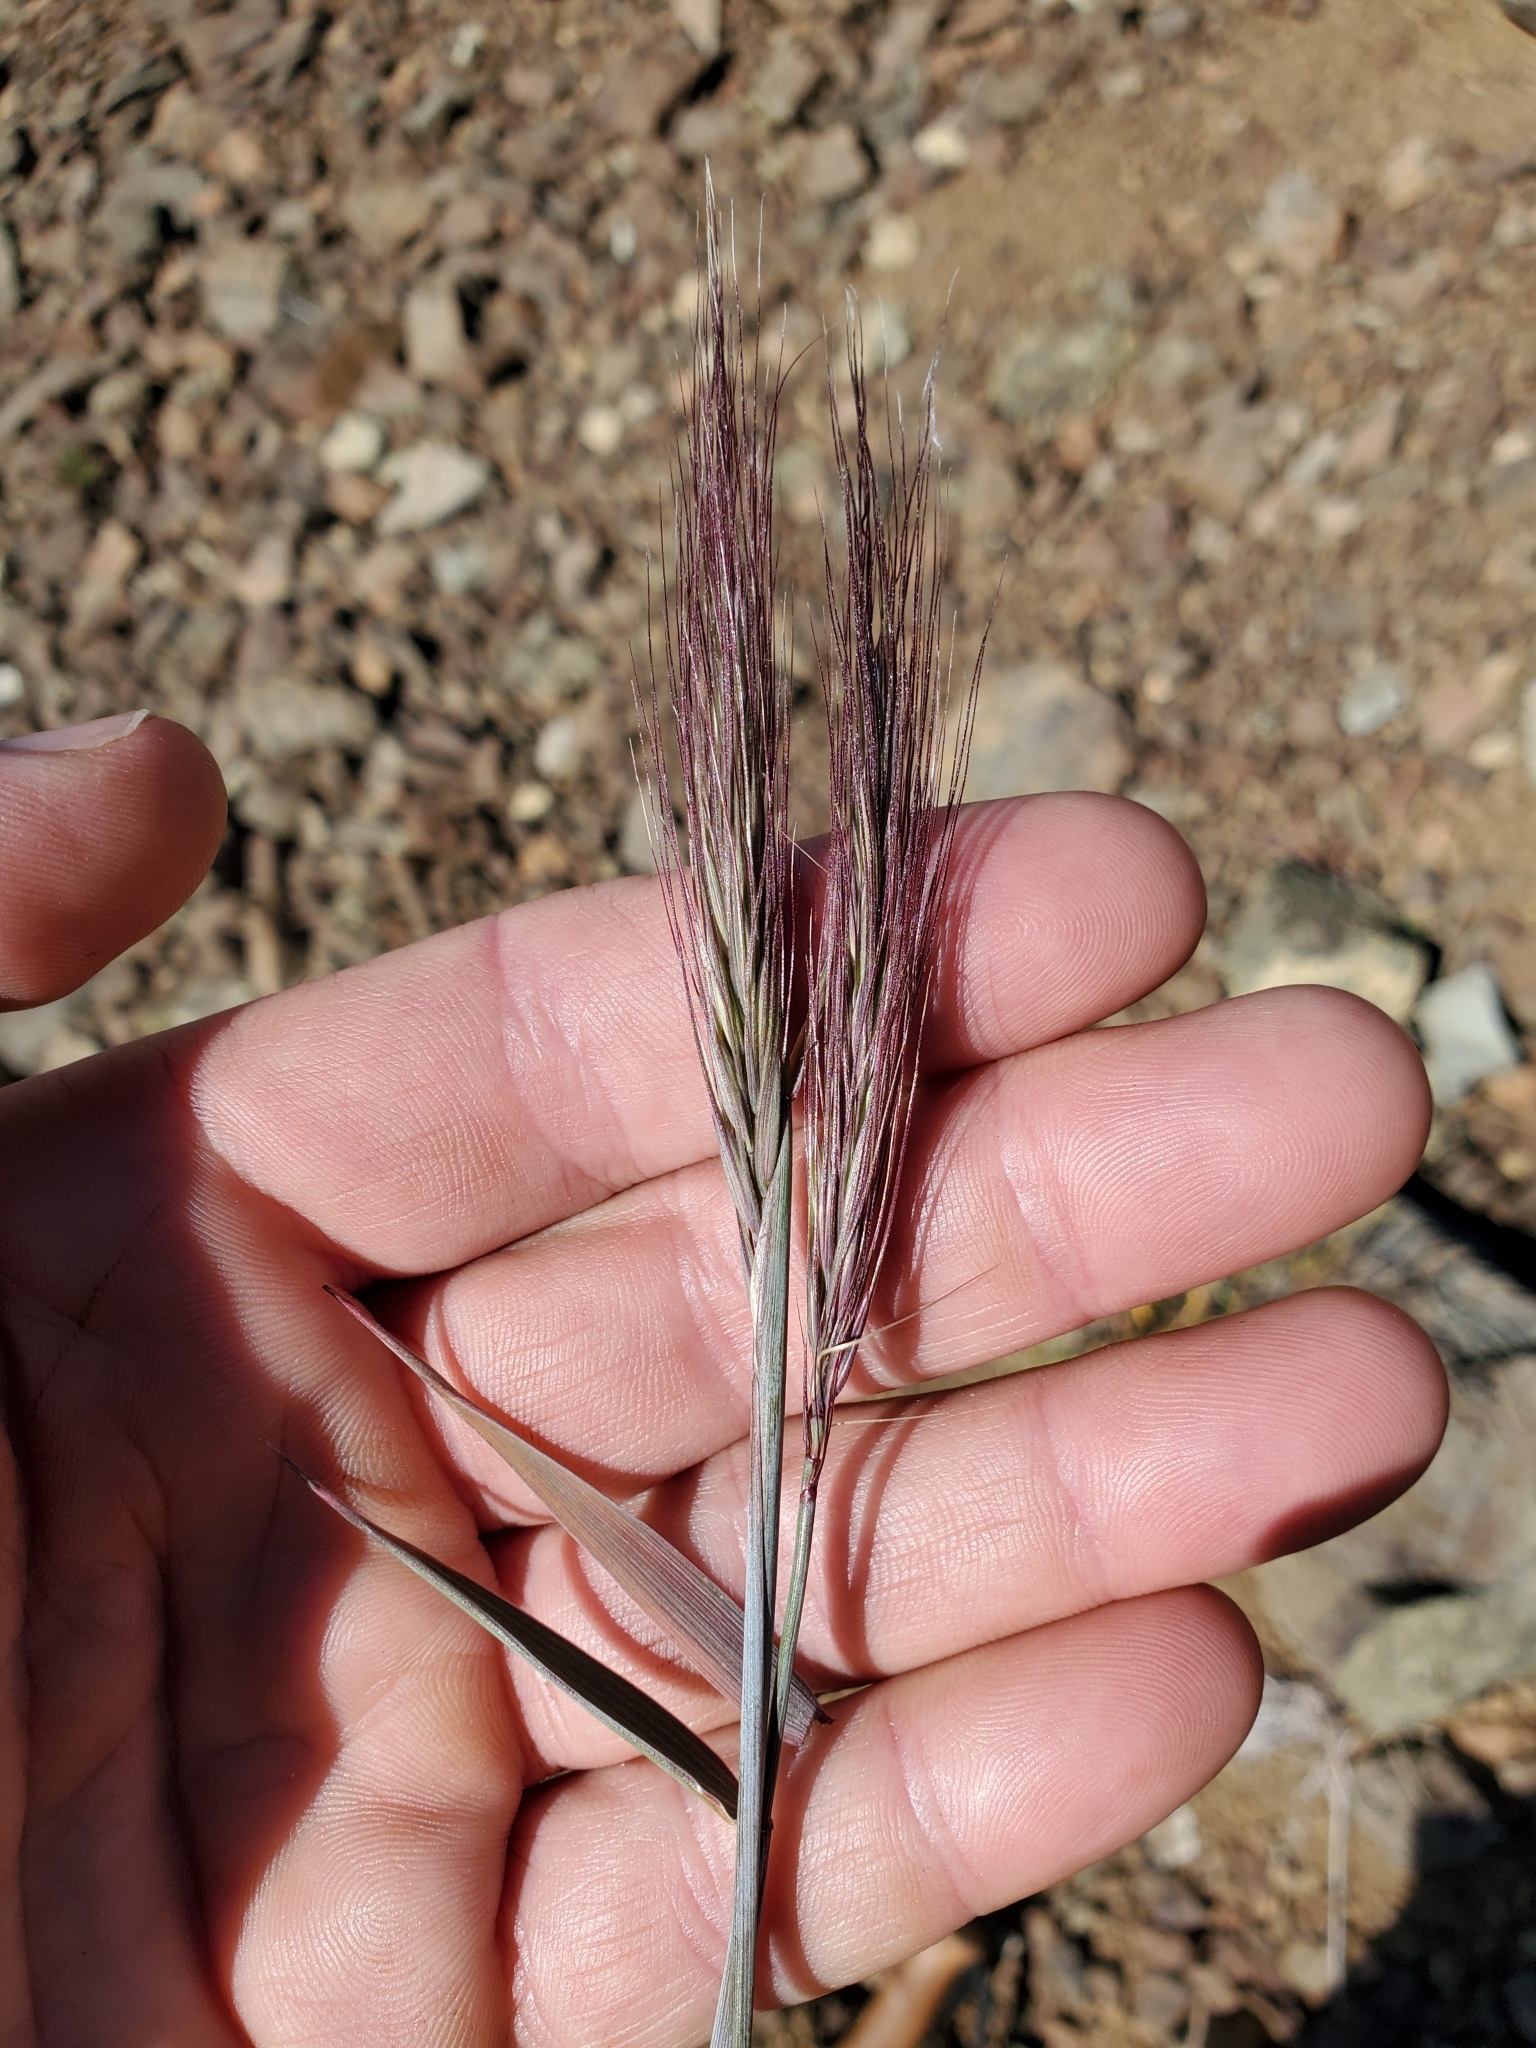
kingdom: Plantae
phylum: Tracheophyta
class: Liliopsida
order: Poales
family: Poaceae
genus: Elymus
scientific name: Elymus elymoides
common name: Bottlebrush squirreltail
